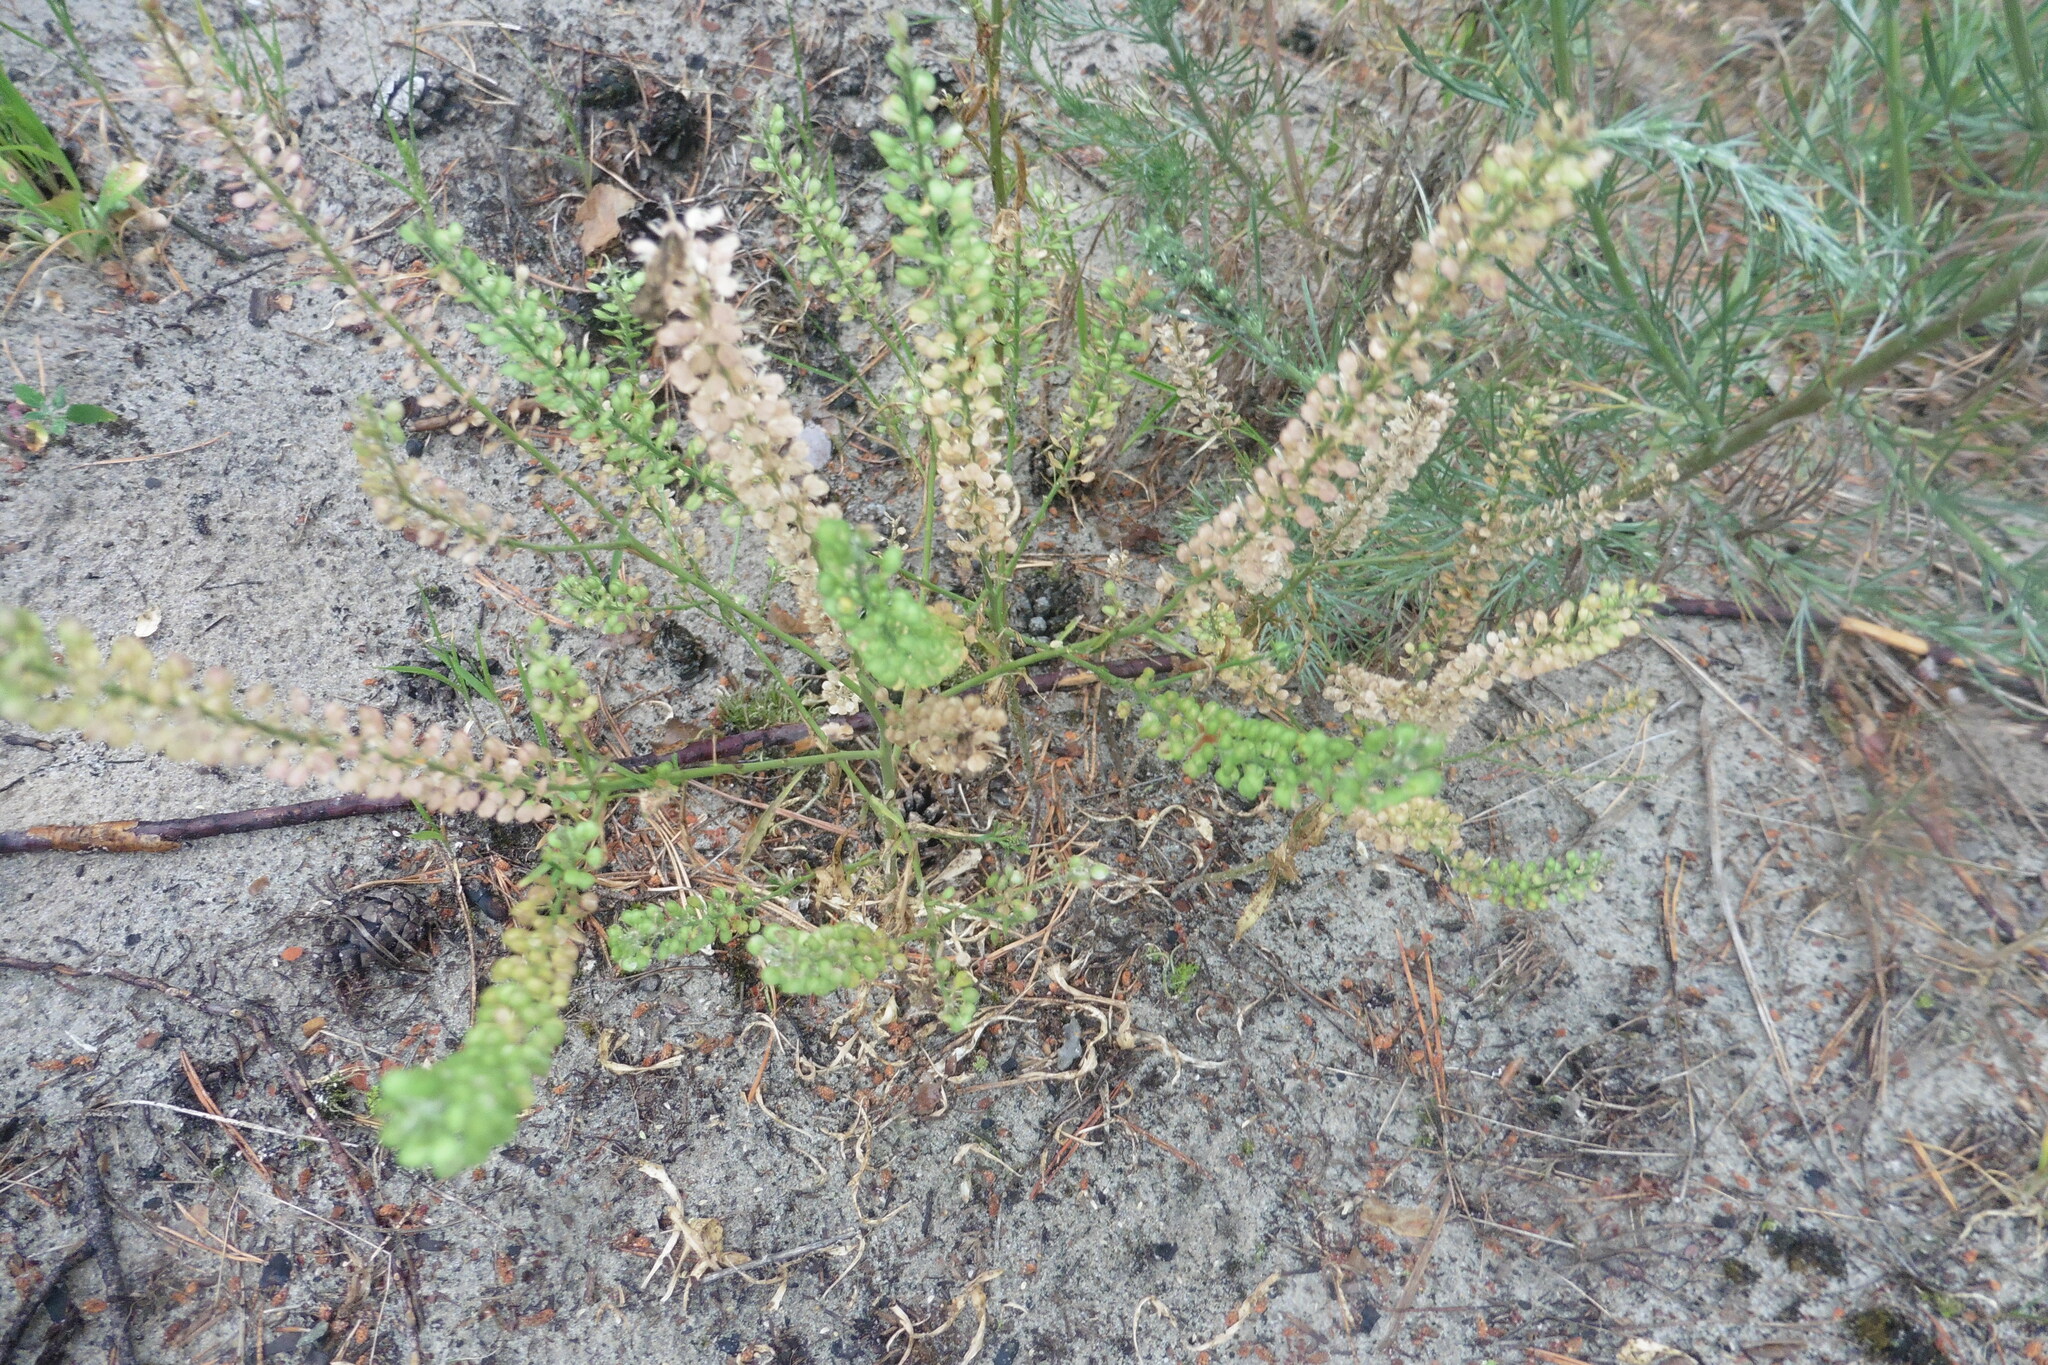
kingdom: Plantae
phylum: Tracheophyta
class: Magnoliopsida
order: Brassicales
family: Brassicaceae
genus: Lepidium
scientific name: Lepidium densiflorum
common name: Miner's pepperwort
